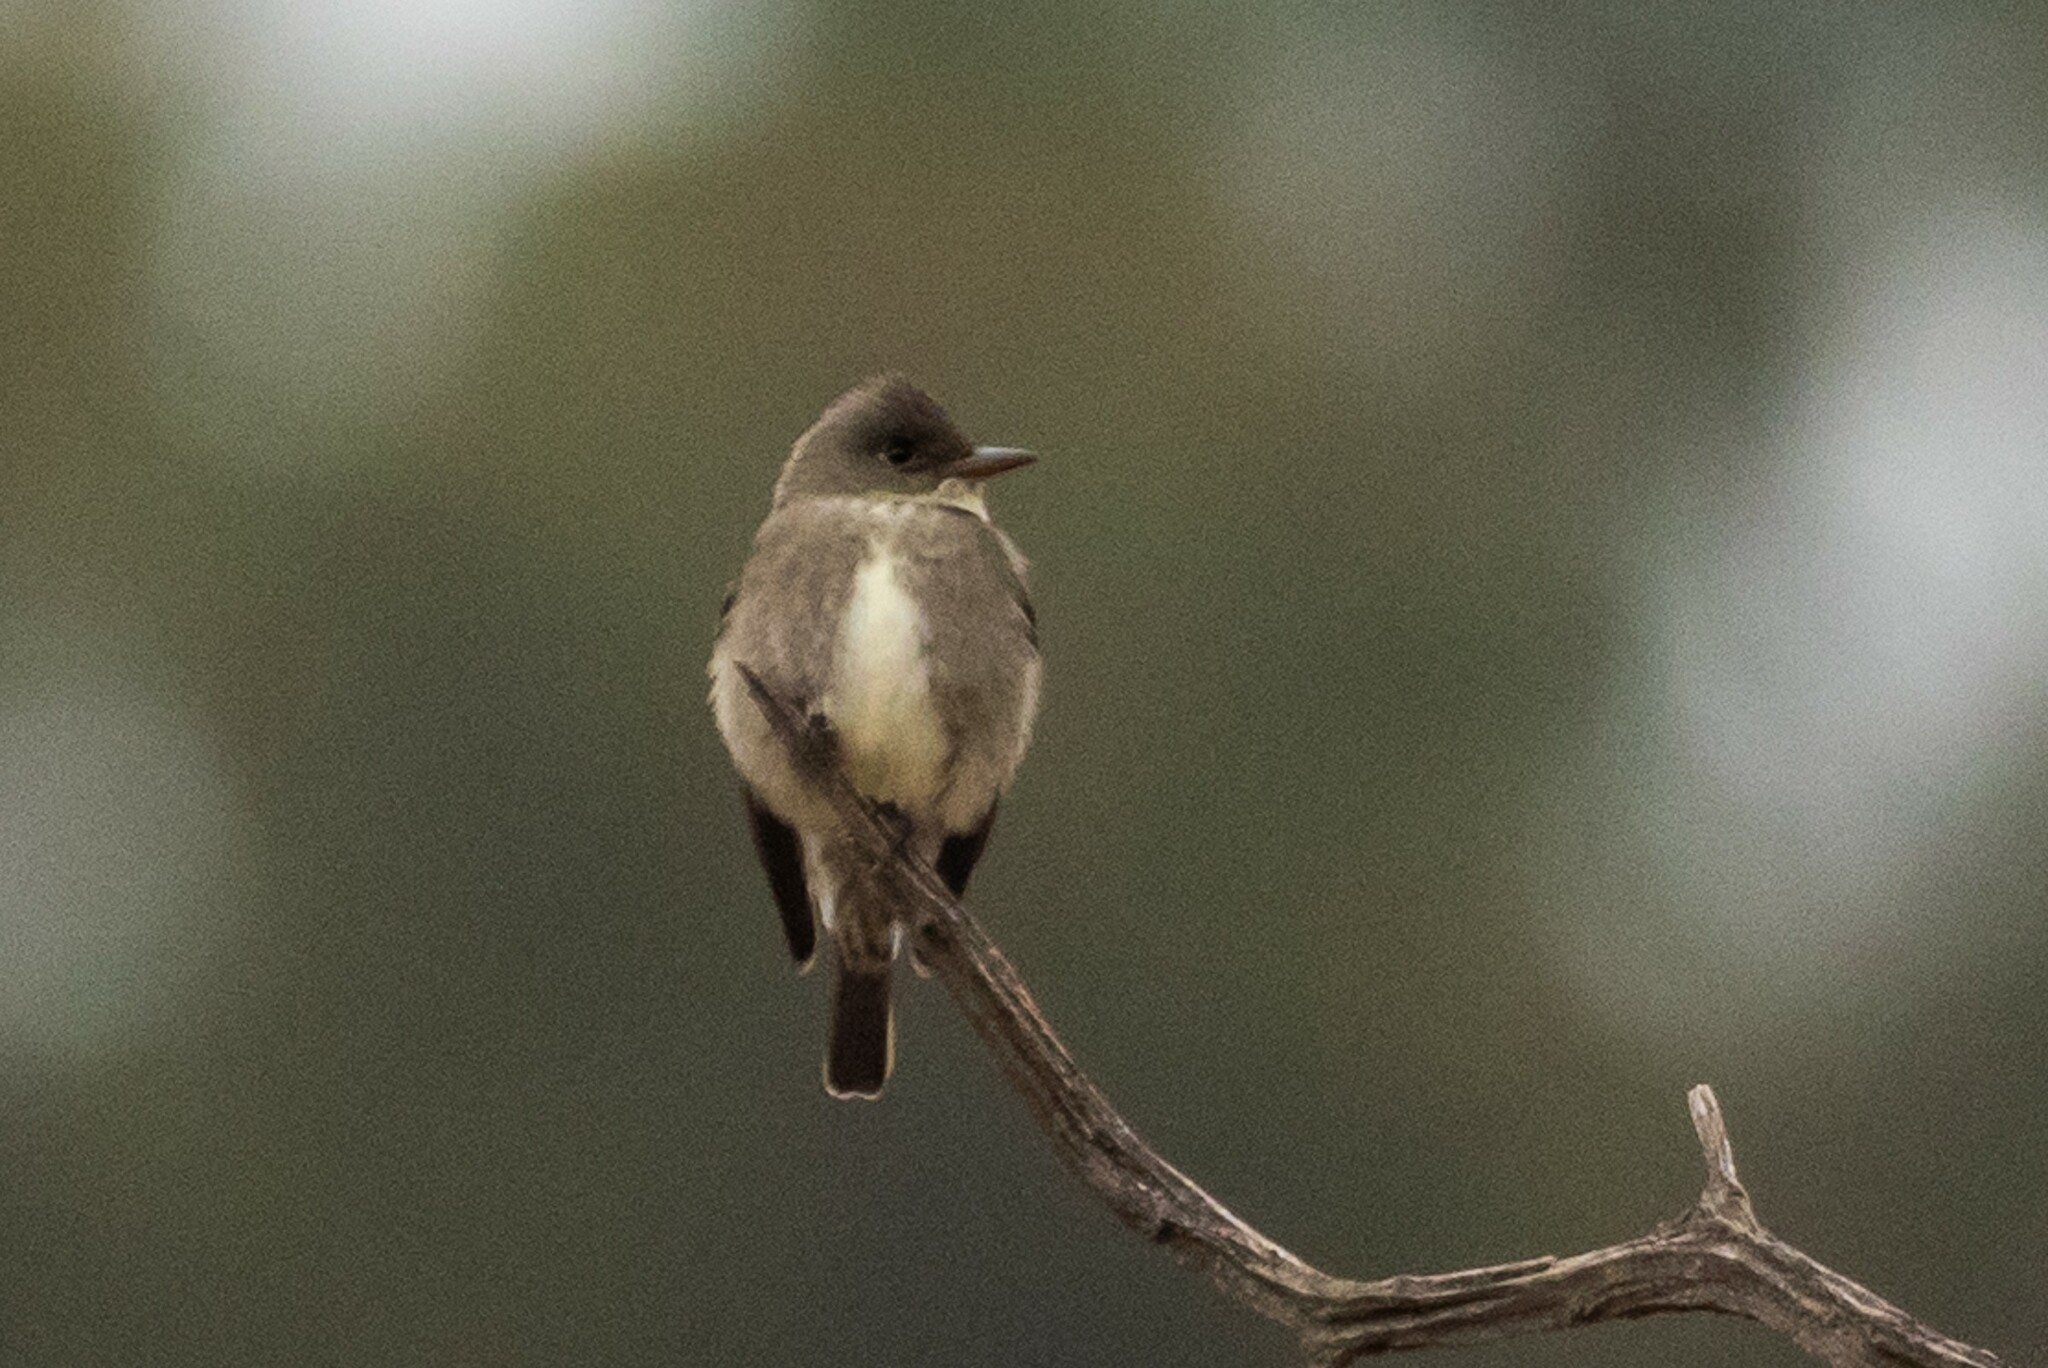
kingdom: Animalia
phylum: Chordata
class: Aves
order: Passeriformes
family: Tyrannidae
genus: Contopus
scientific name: Contopus cooperi
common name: Olive-sided flycatcher
